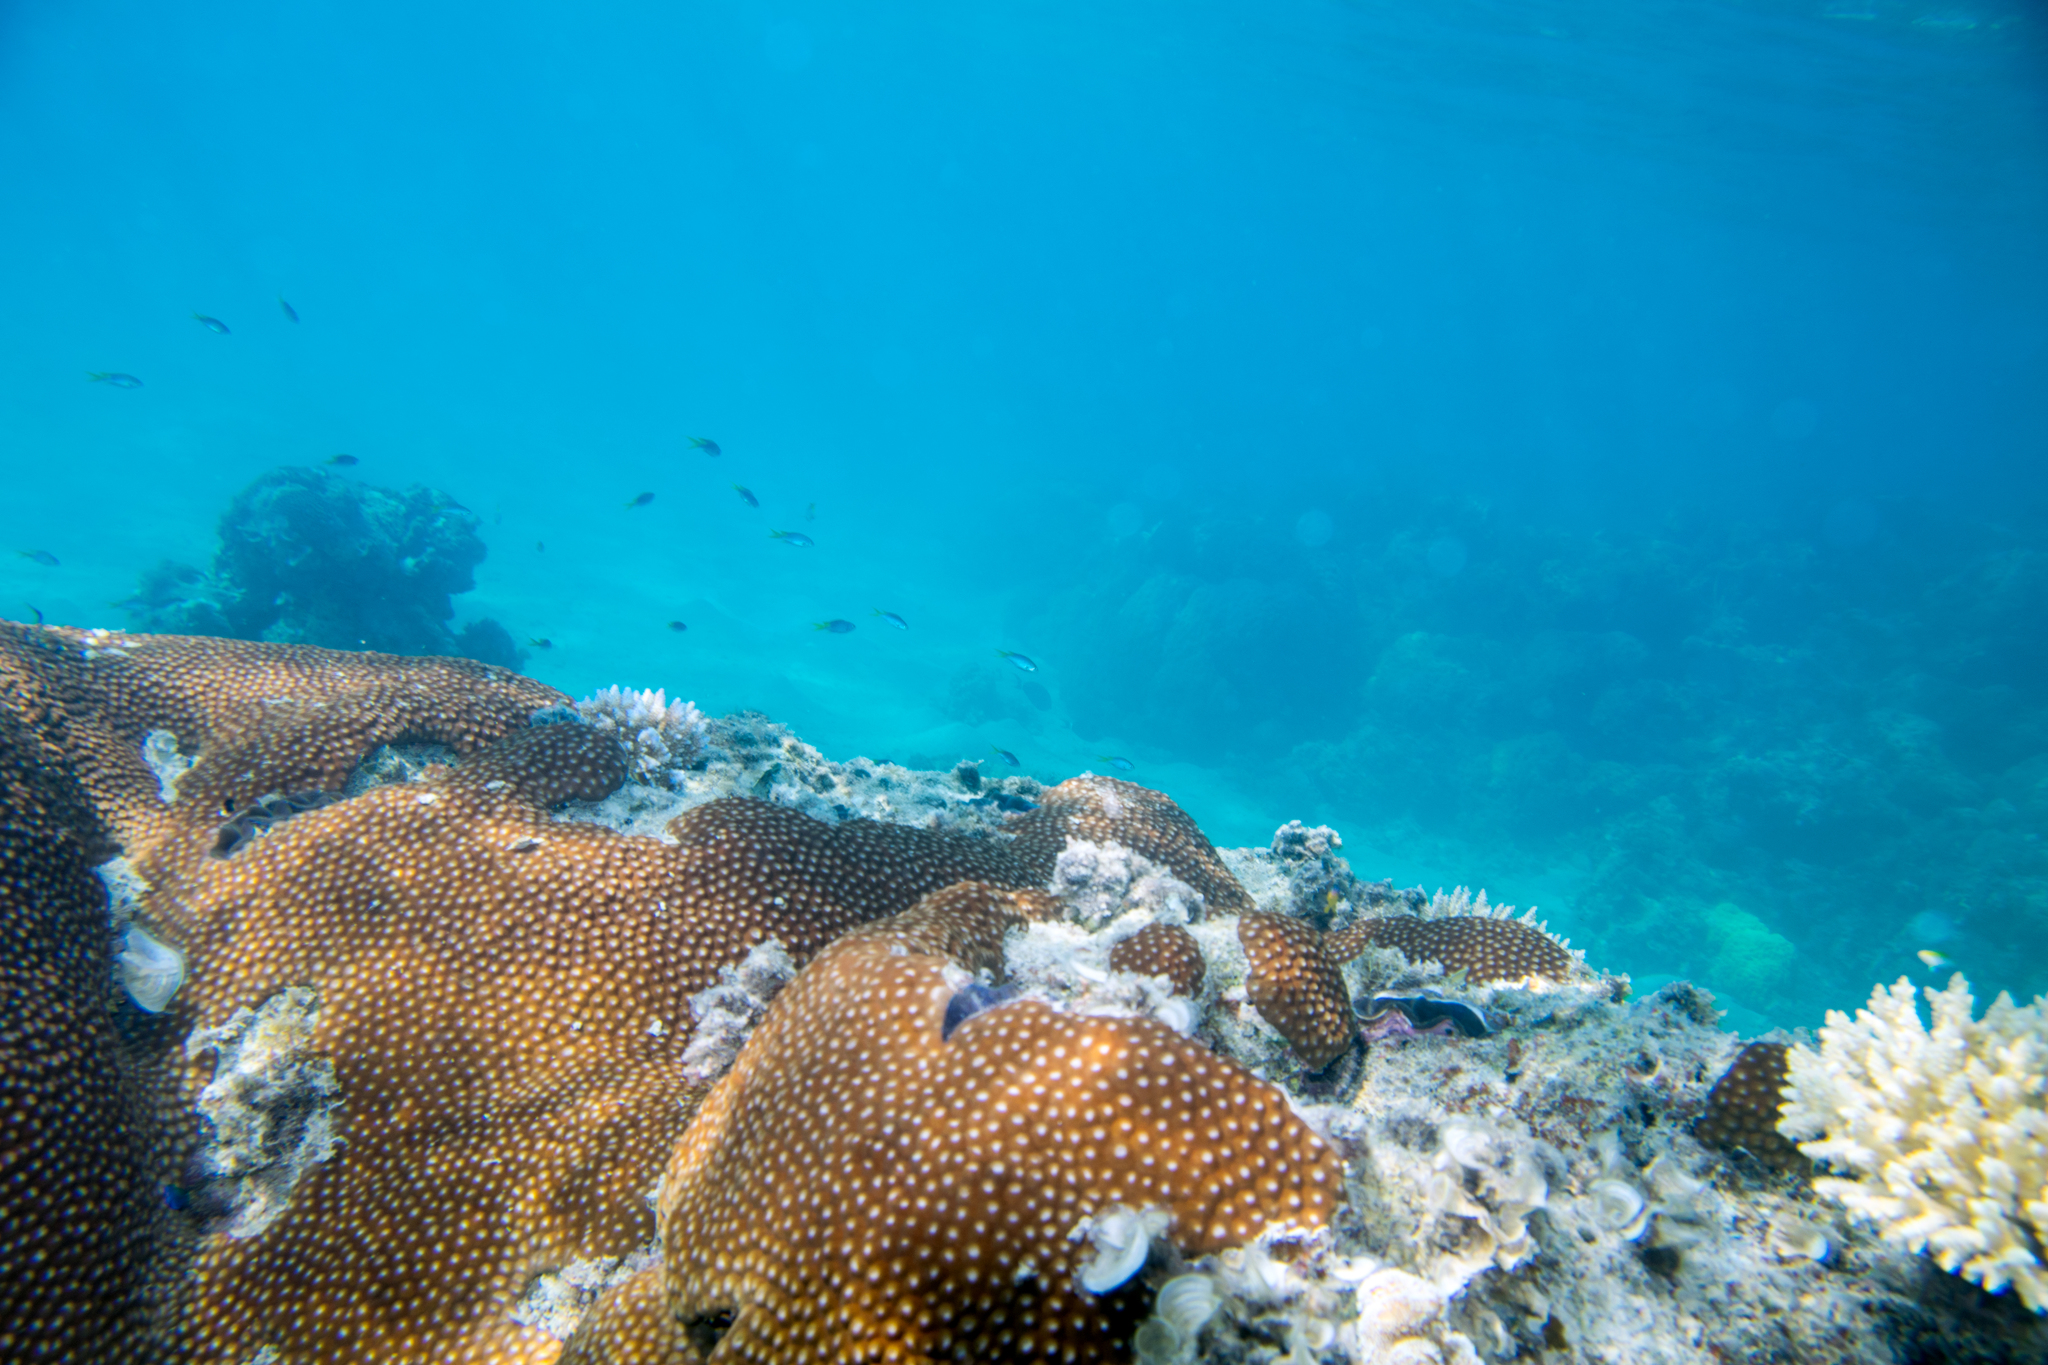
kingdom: Animalia
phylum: Cnidaria
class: Anthozoa
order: Scleractinia
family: Diploastraeidae
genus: Diploastrea
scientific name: Diploastrea heliopora
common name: Double-star coral
